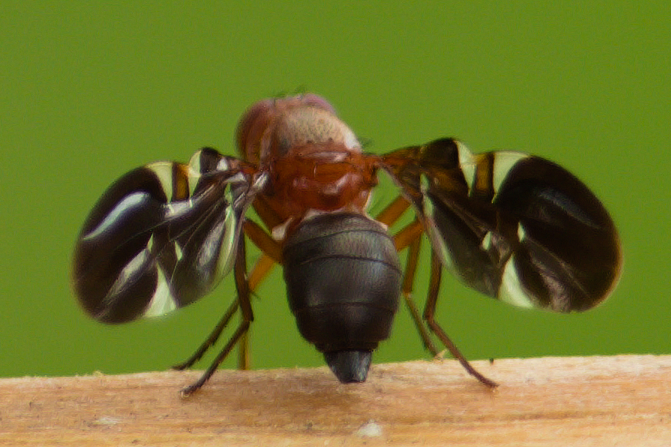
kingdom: Animalia
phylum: Arthropoda
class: Insecta
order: Diptera
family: Ulidiidae
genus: Delphinia
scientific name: Delphinia picta
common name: Common picture-winged fly
